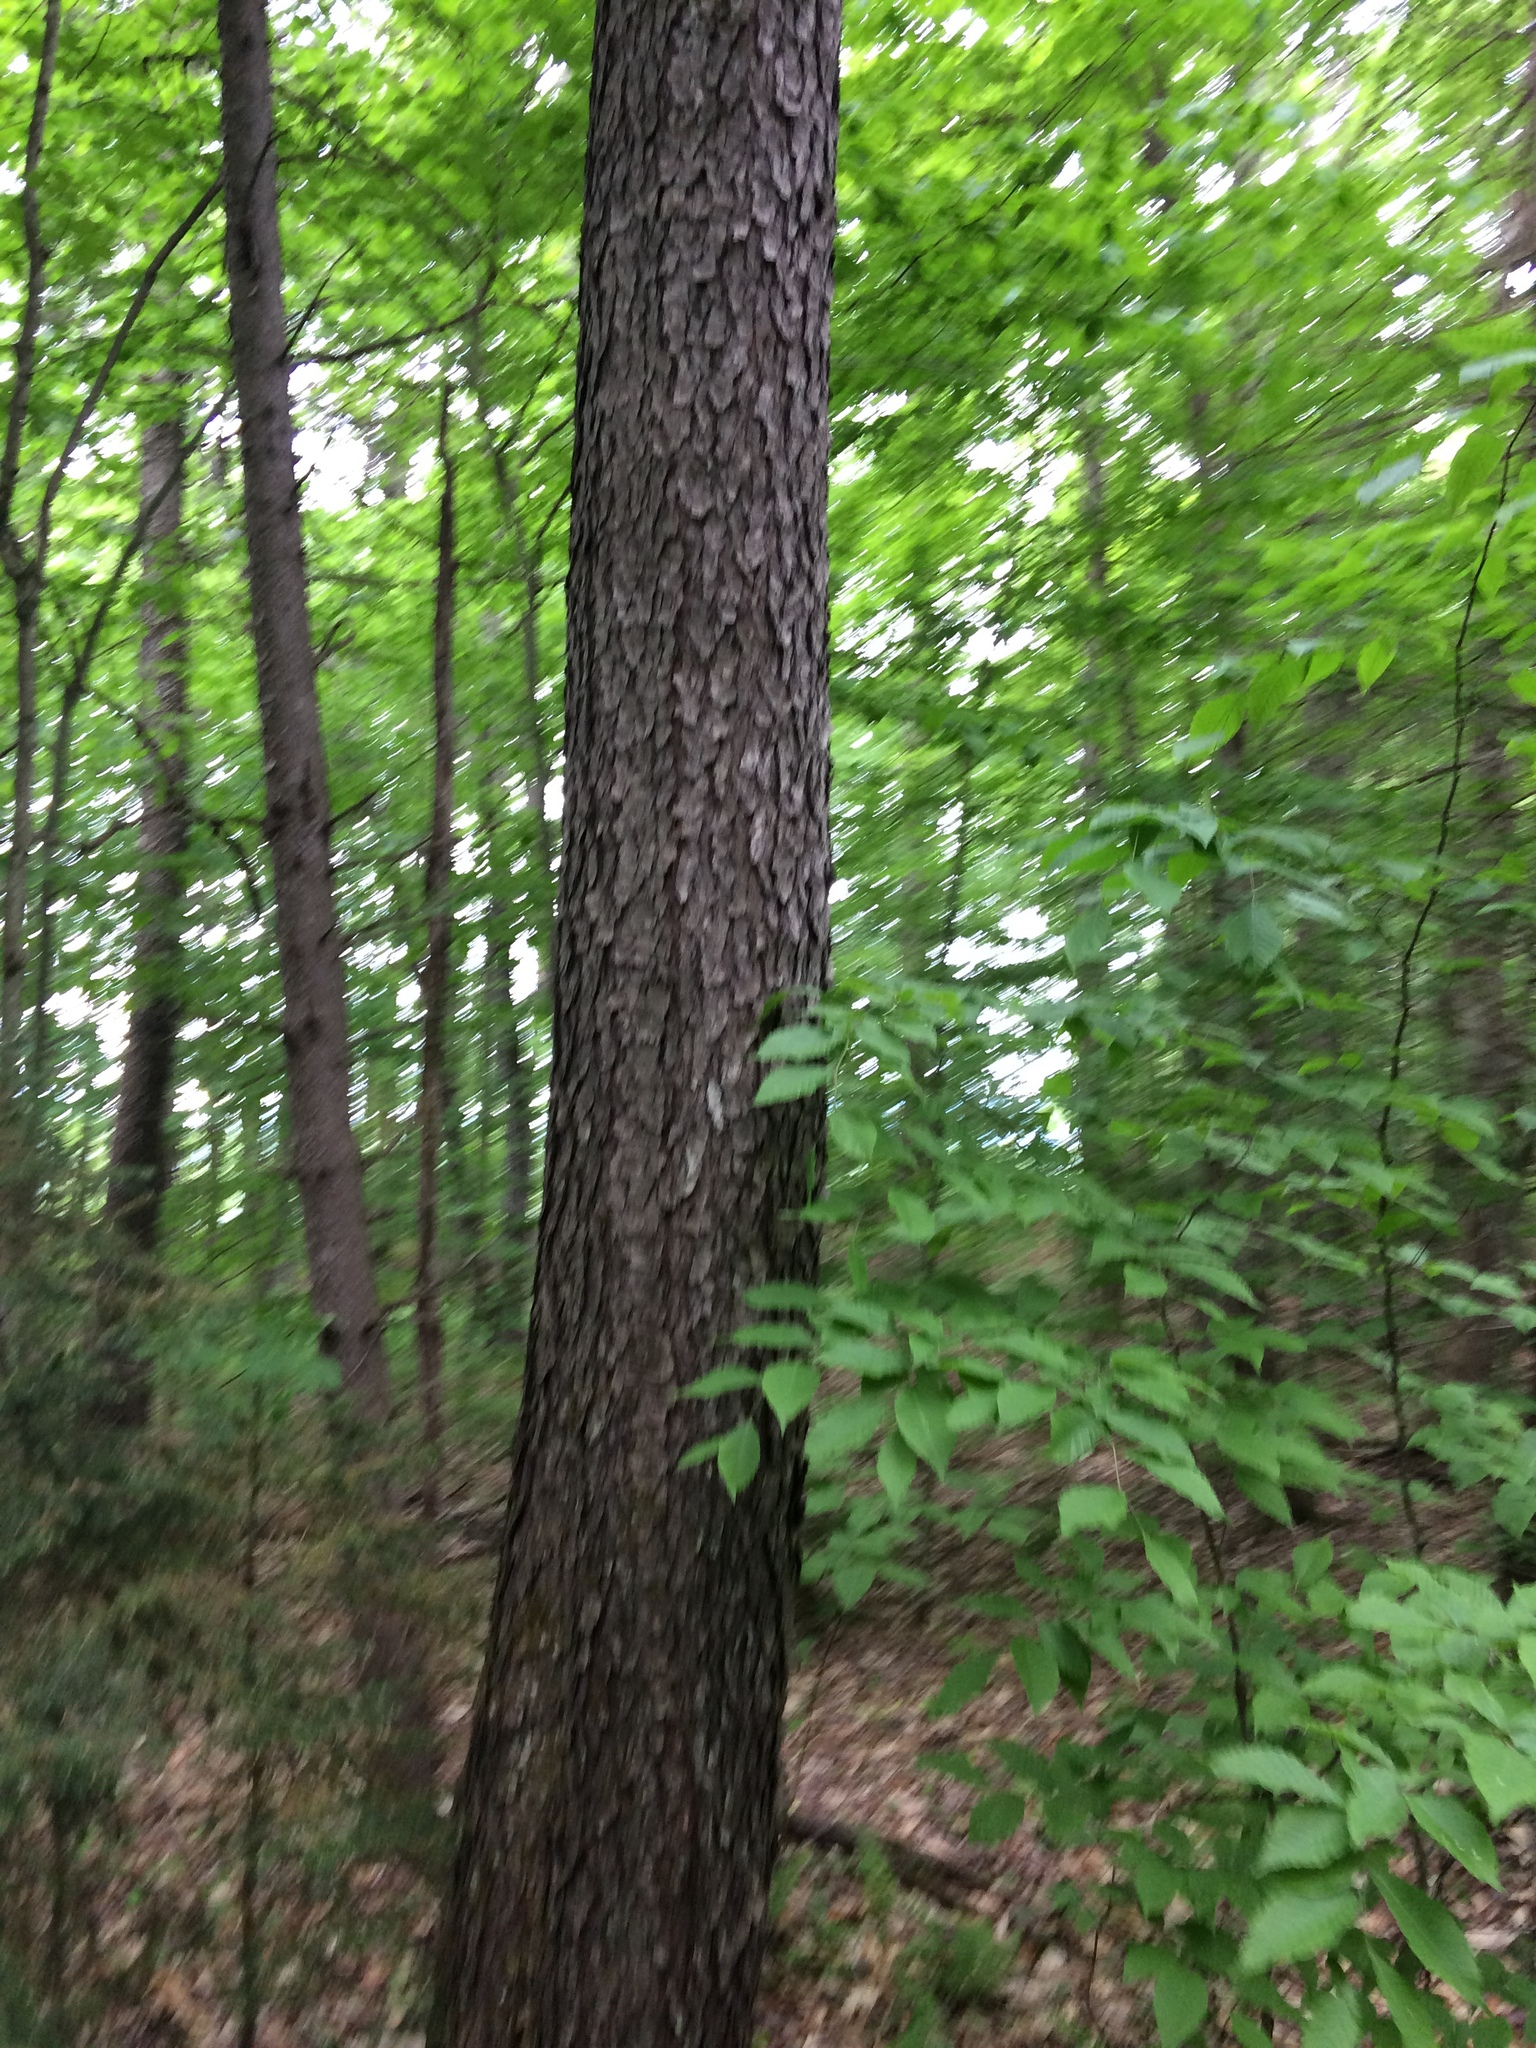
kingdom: Plantae
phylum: Tracheophyta
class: Magnoliopsida
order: Rosales
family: Rosaceae
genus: Prunus
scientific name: Prunus serotina
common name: Black cherry
